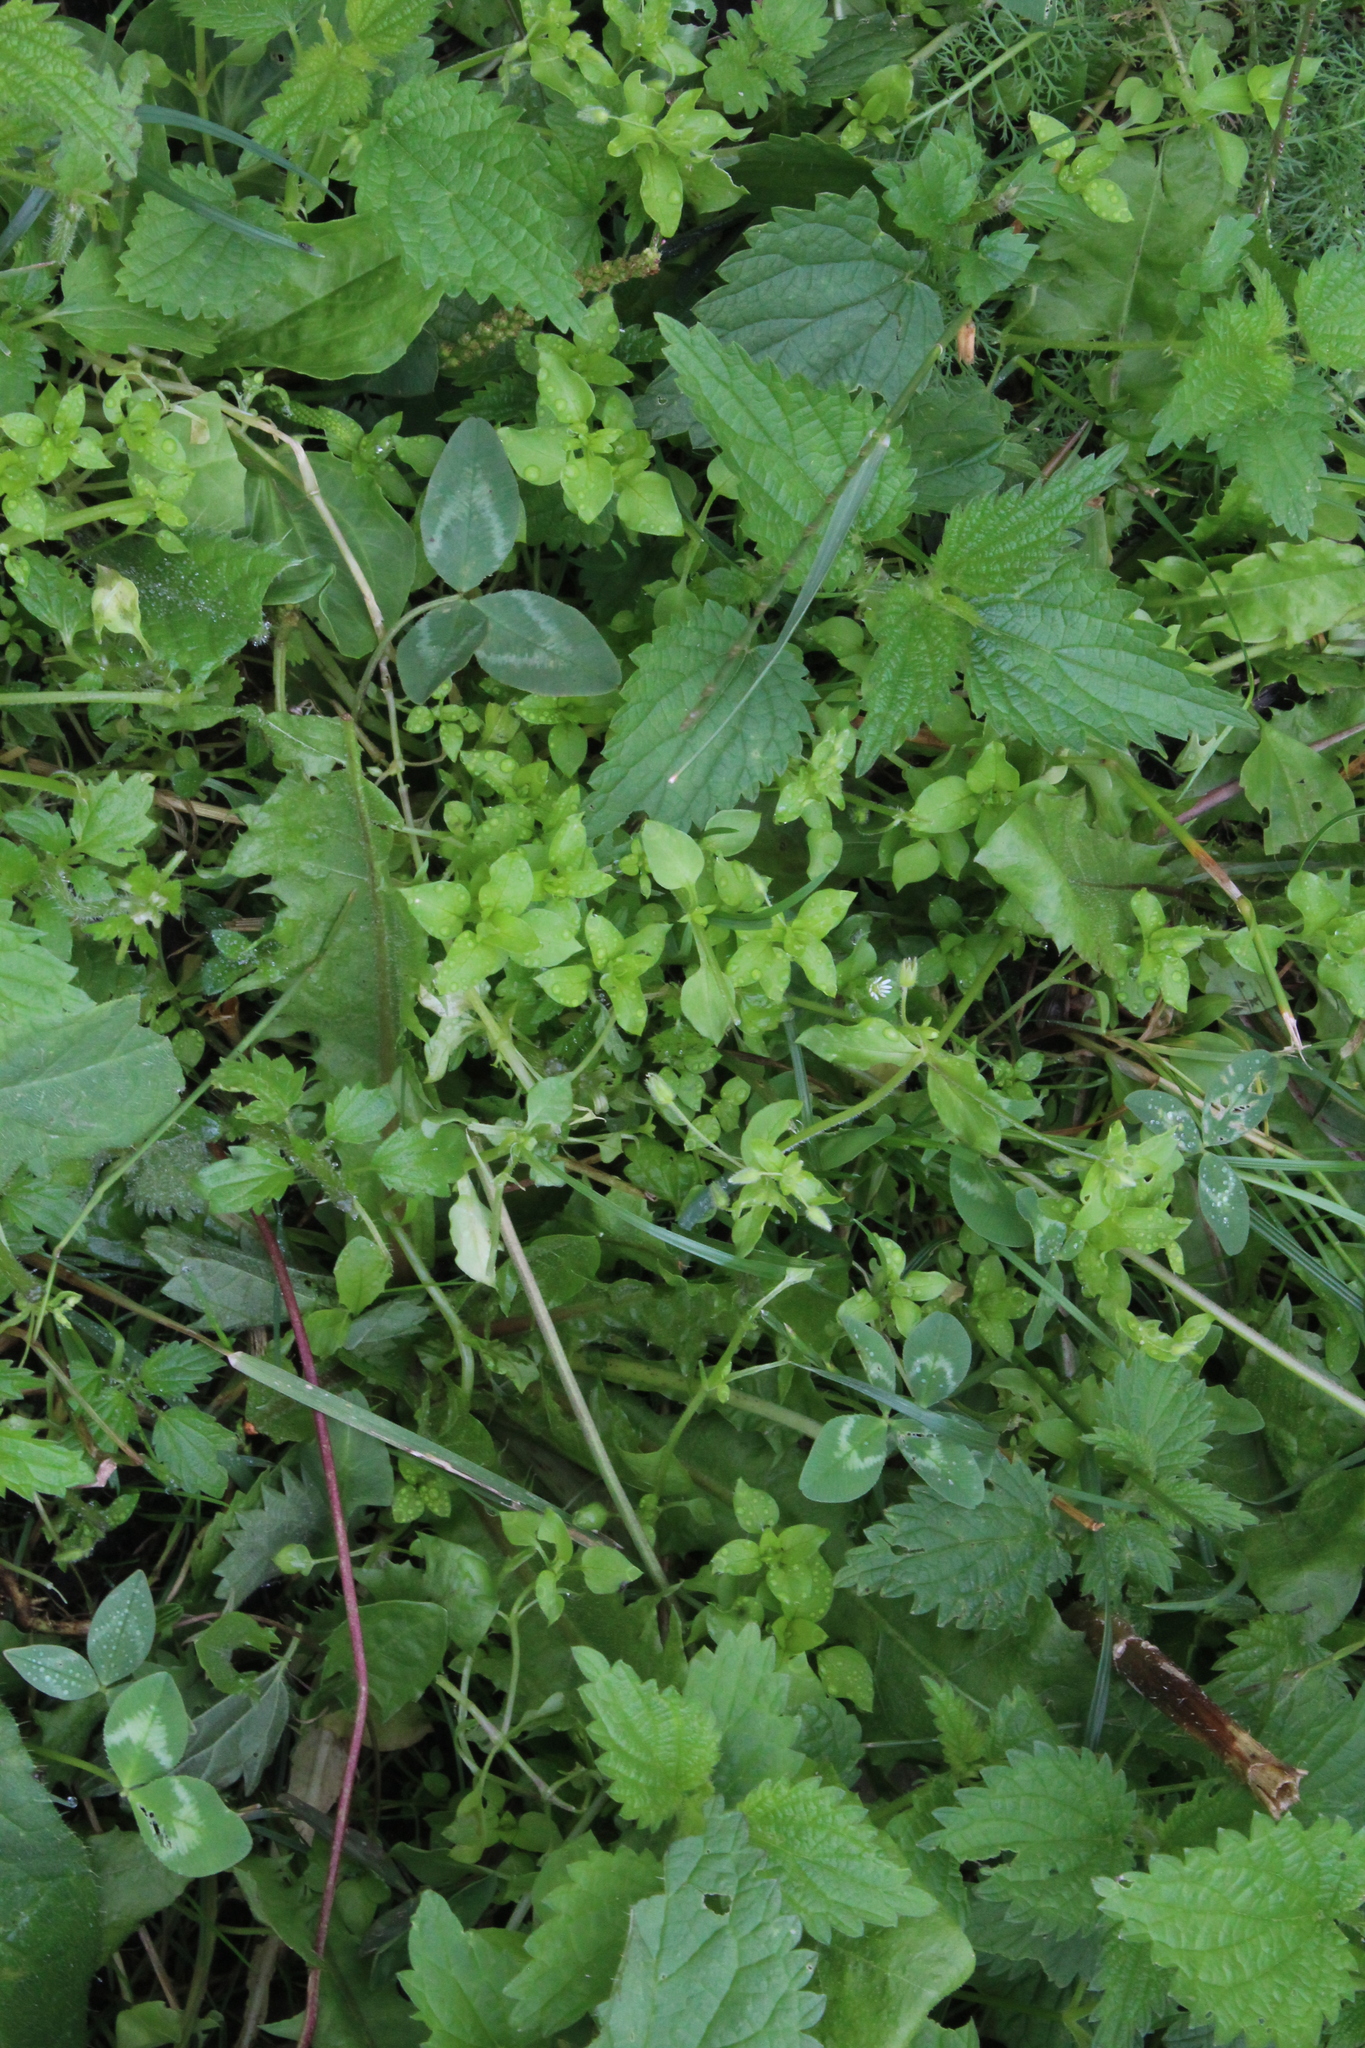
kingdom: Plantae
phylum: Tracheophyta
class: Magnoliopsida
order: Caryophyllales
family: Caryophyllaceae
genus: Stellaria
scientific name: Stellaria media
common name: Common chickweed
